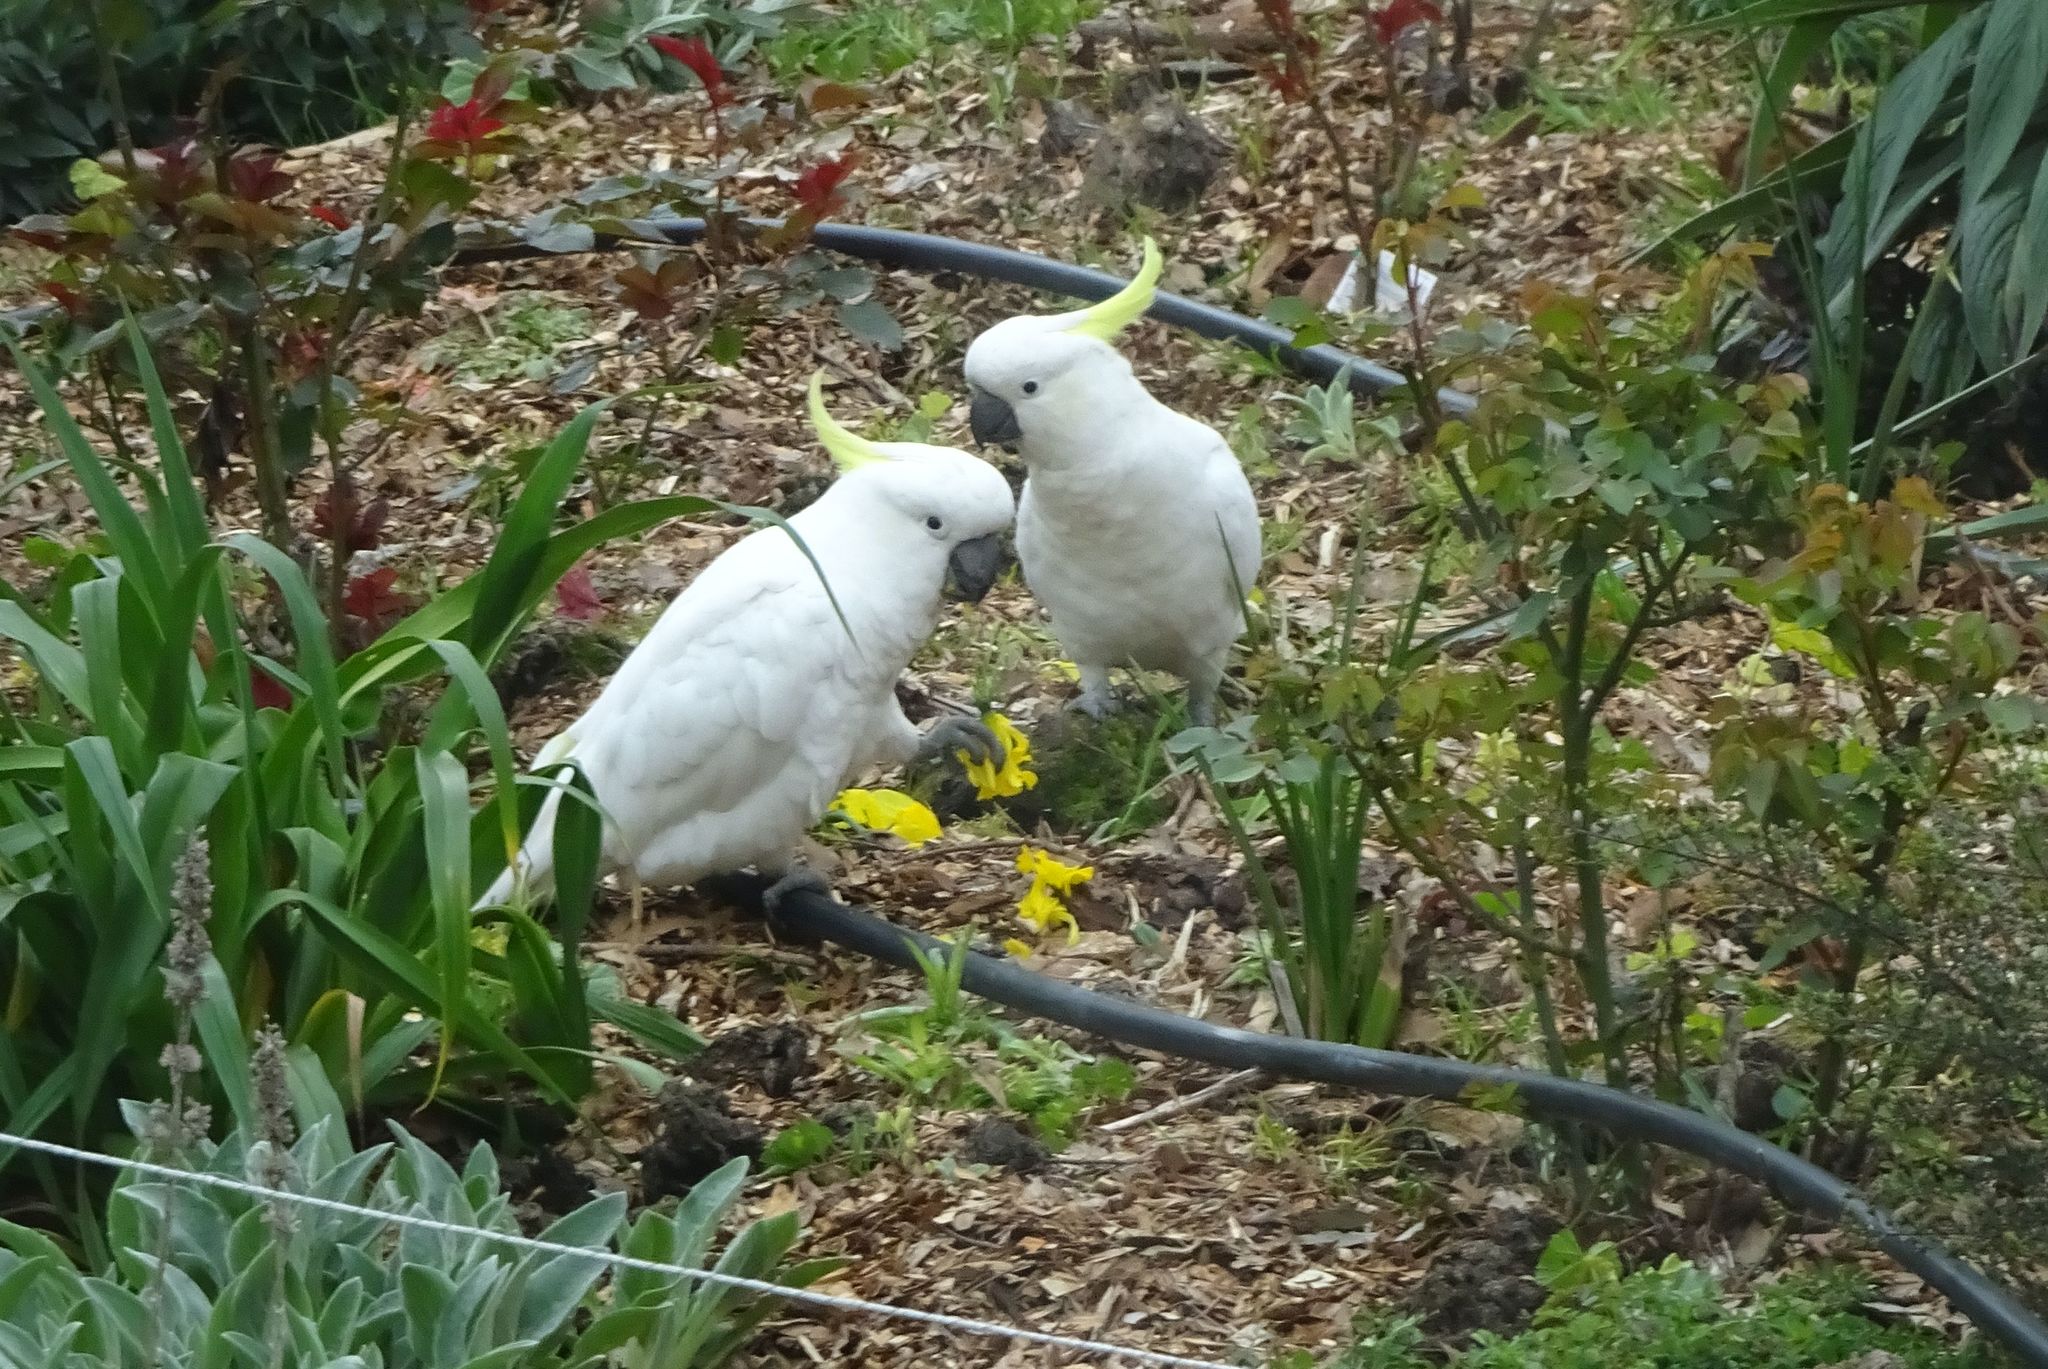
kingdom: Animalia
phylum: Chordata
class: Aves
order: Psittaciformes
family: Psittacidae
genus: Cacatua
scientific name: Cacatua galerita
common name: Sulphur-crested cockatoo
